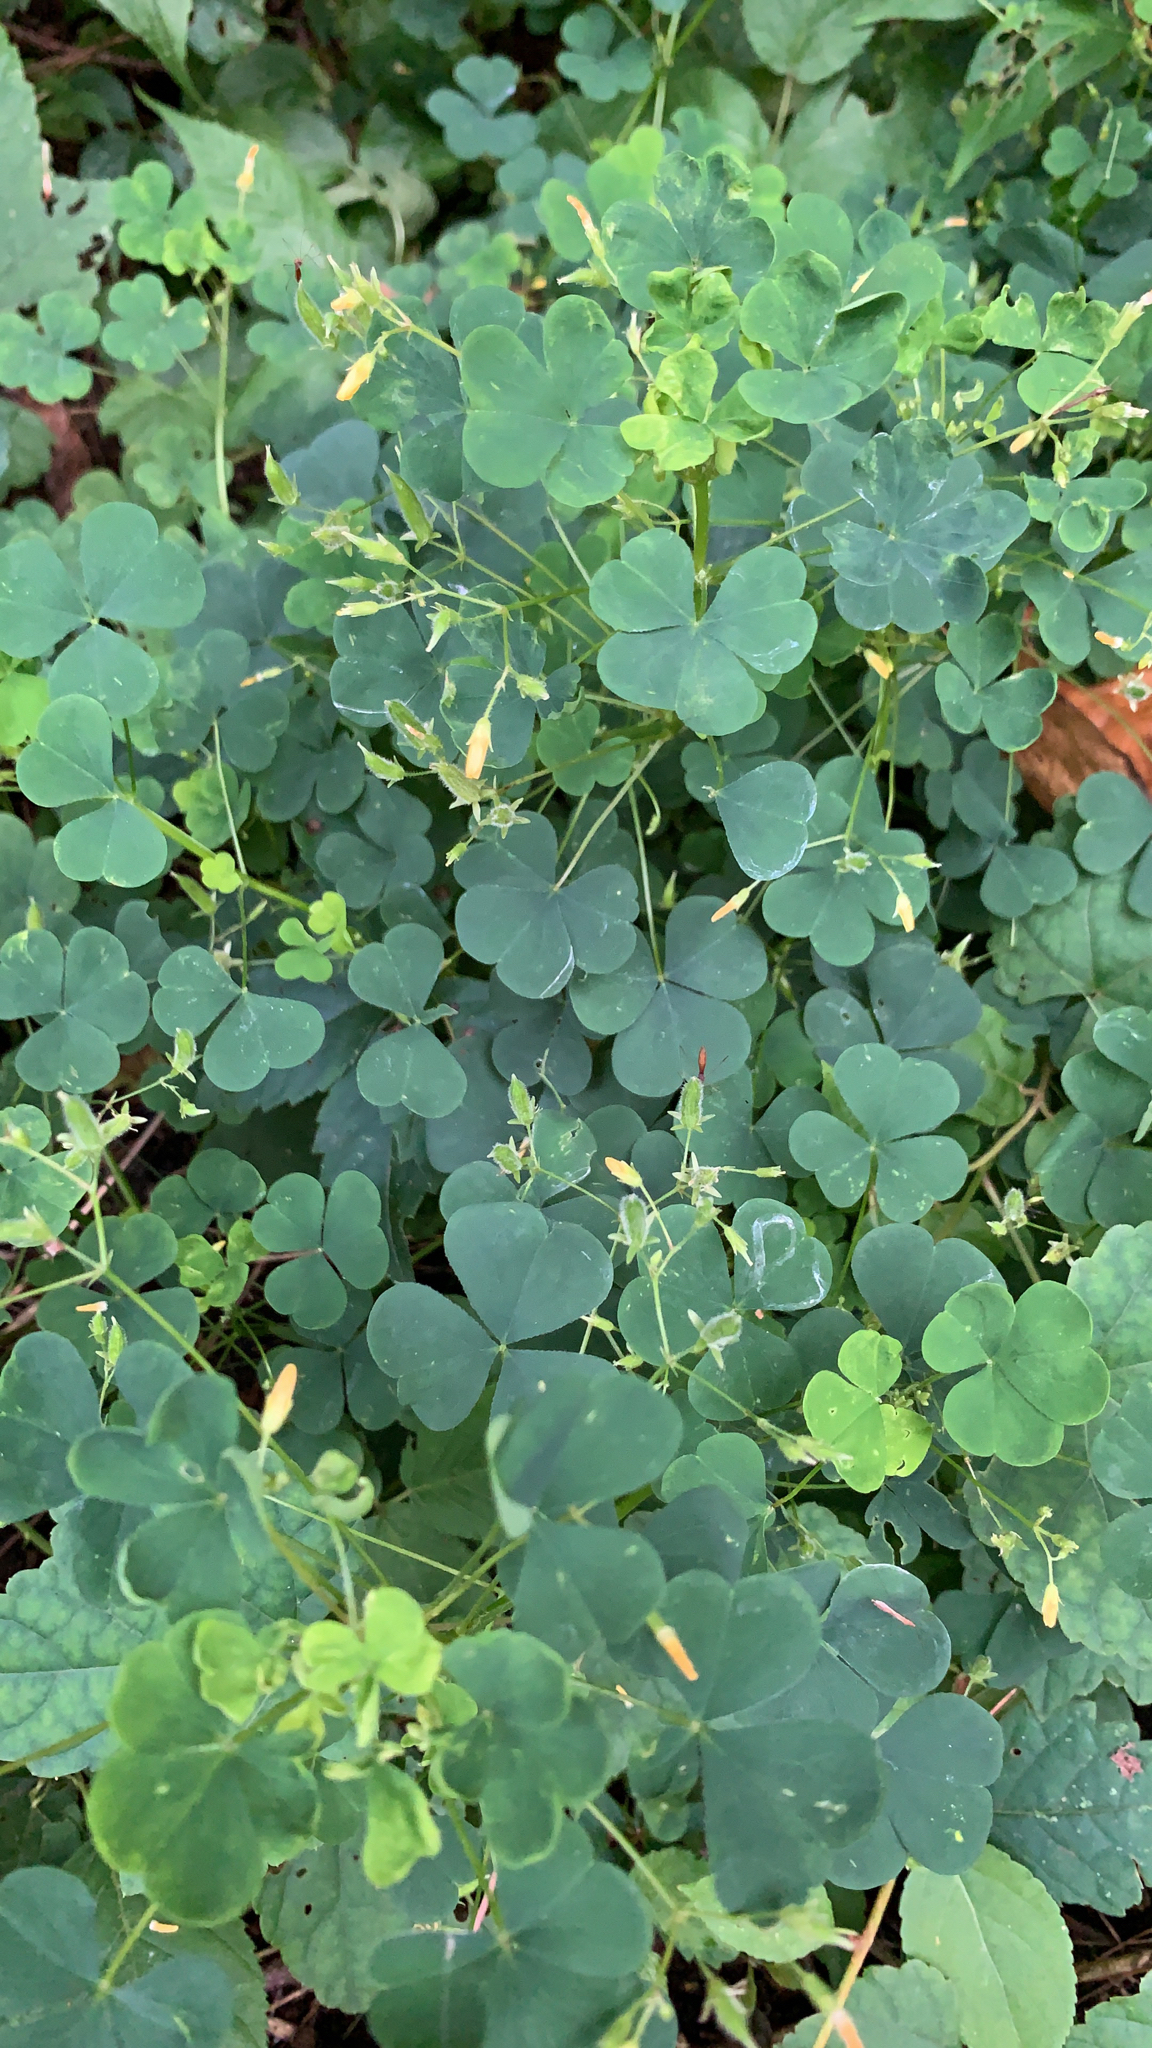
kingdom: Plantae
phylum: Tracheophyta
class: Magnoliopsida
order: Oxalidales
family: Oxalidaceae
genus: Oxalis
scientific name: Oxalis stricta
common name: Upright yellow-sorrel
